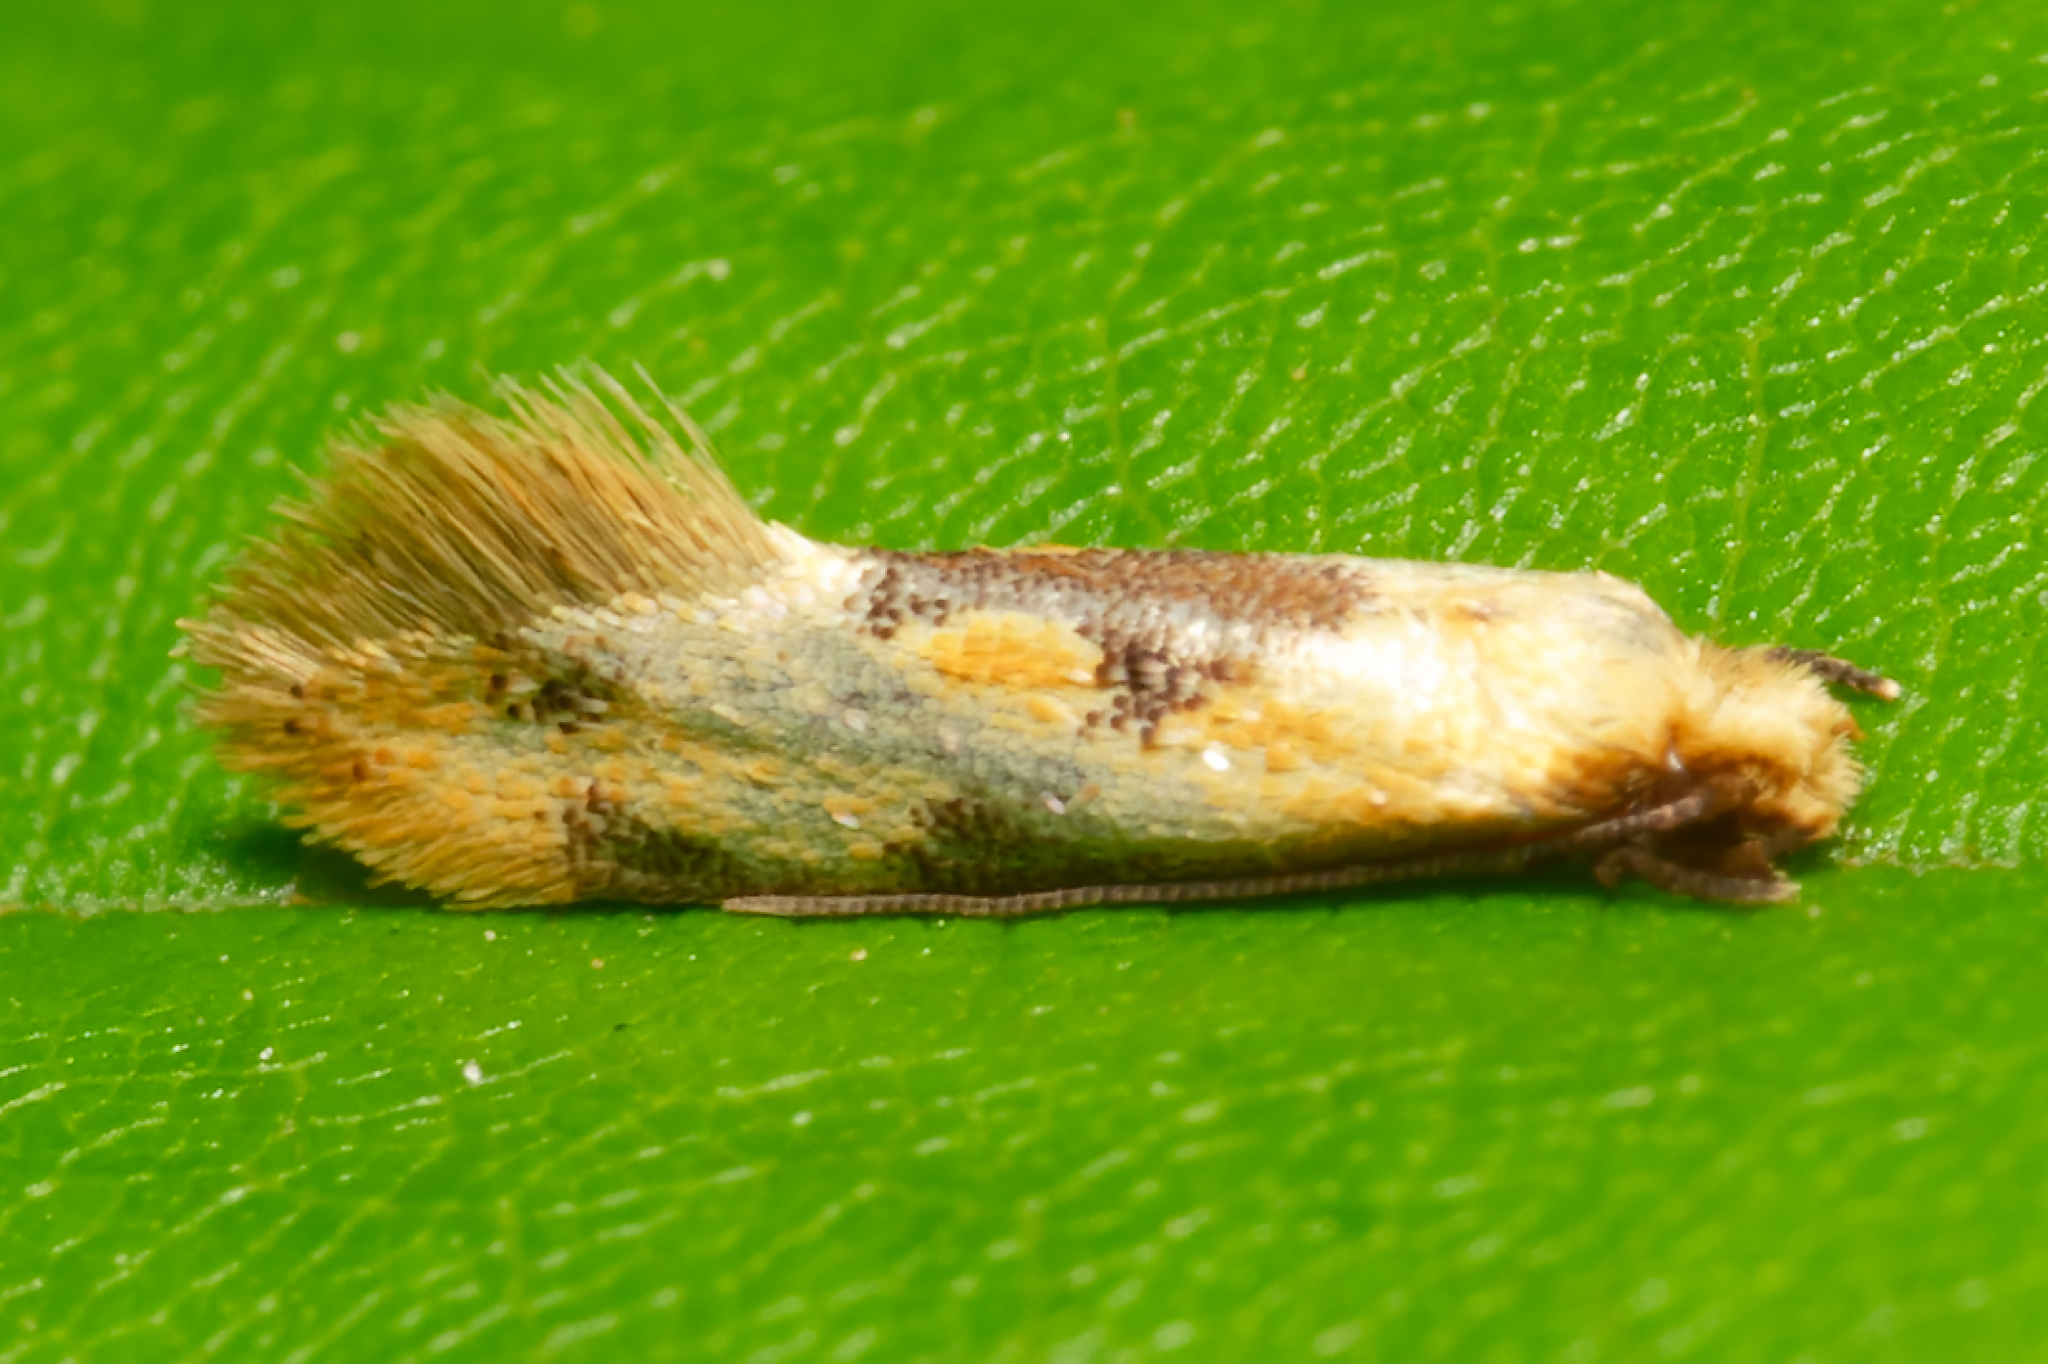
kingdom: Animalia
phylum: Arthropoda
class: Insecta
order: Lepidoptera
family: Meessiidae
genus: Hybroma
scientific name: Hybroma servulella
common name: Yellow wave moth
